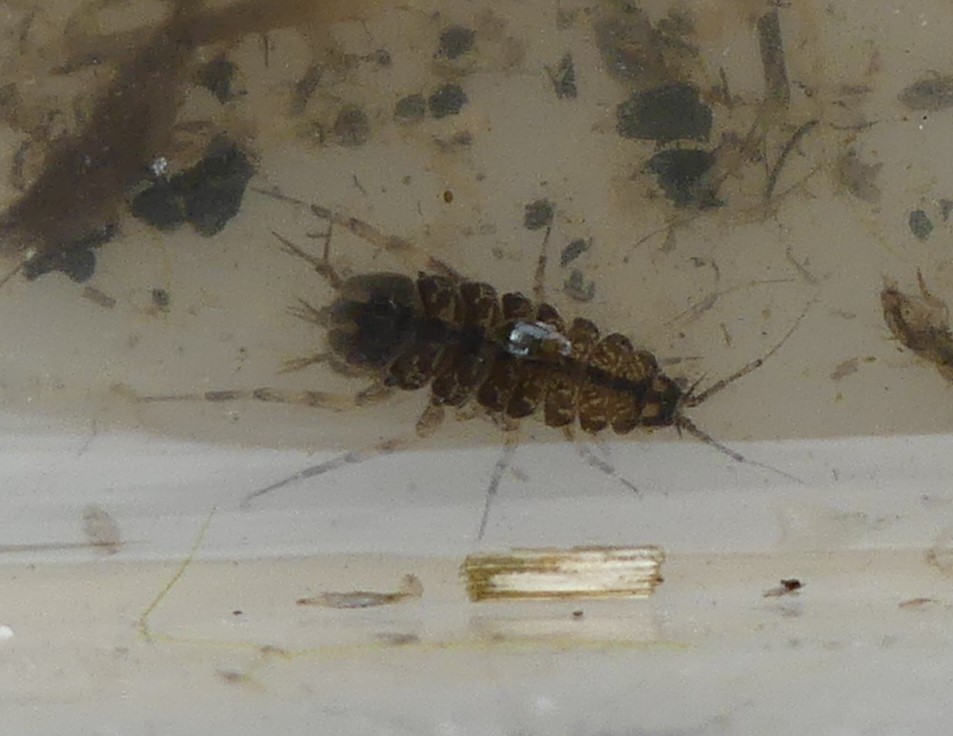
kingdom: Animalia
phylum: Arthropoda
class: Malacostraca
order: Isopoda
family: Asellidae
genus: Asellus
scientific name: Asellus aquaticus
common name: Water hog lice/slaters
